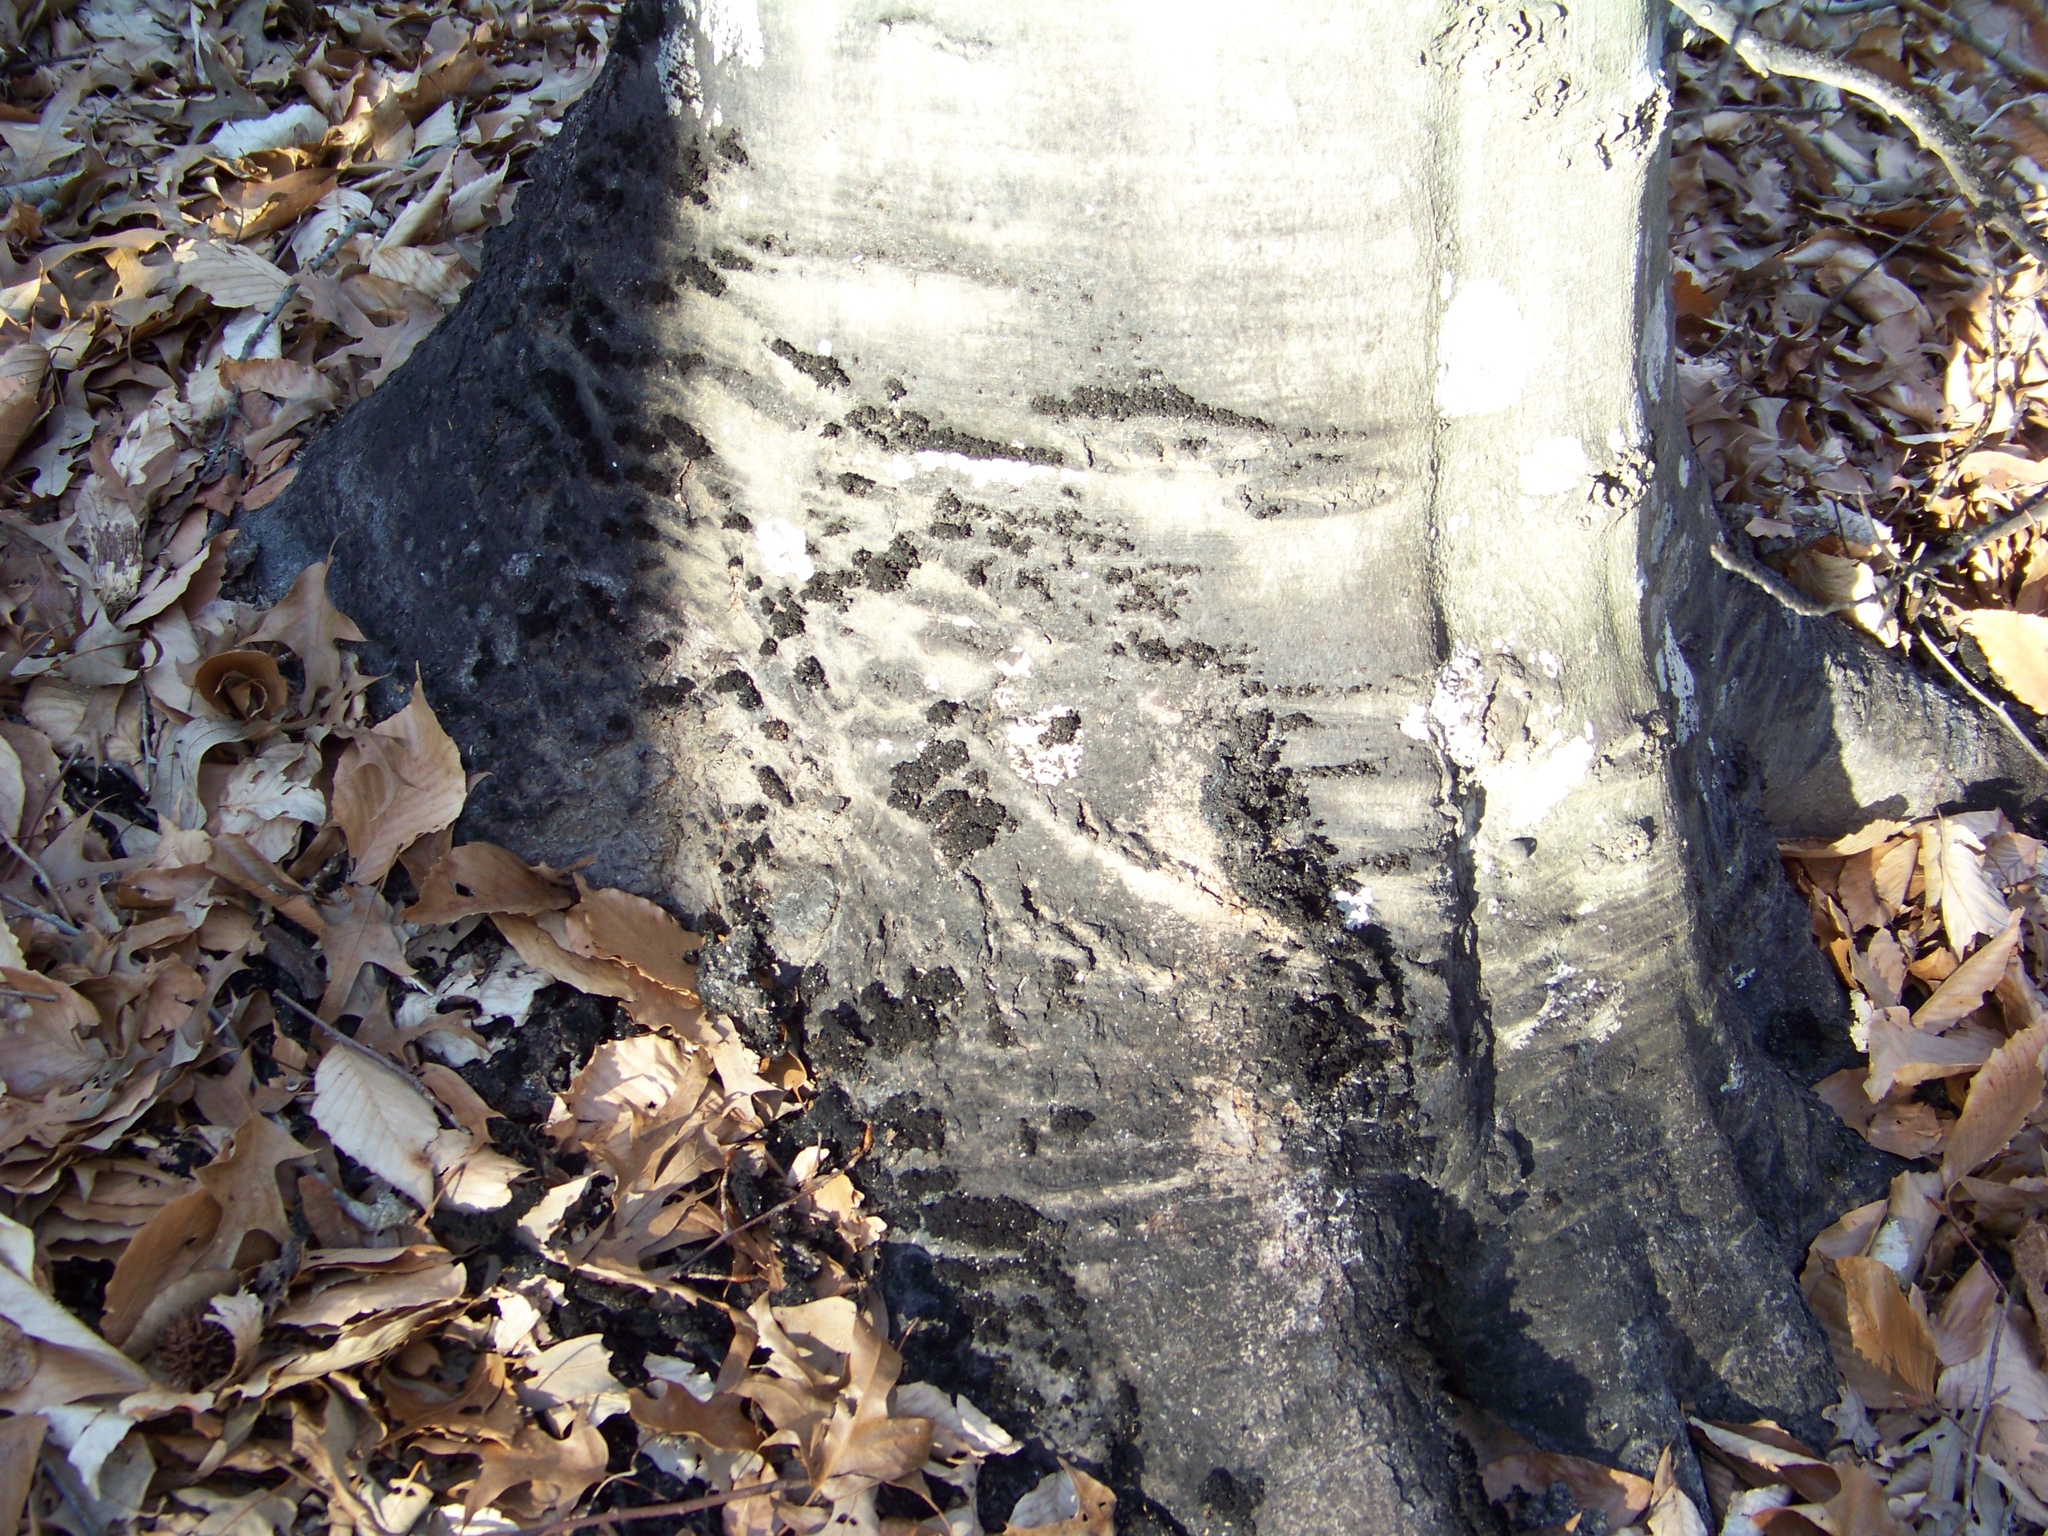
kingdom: Fungi
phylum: Ascomycota
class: Dothideomycetes
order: Capnodiales
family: Capnodiaceae
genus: Scorias
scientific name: Scorias spongiosa
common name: Black sooty mold
